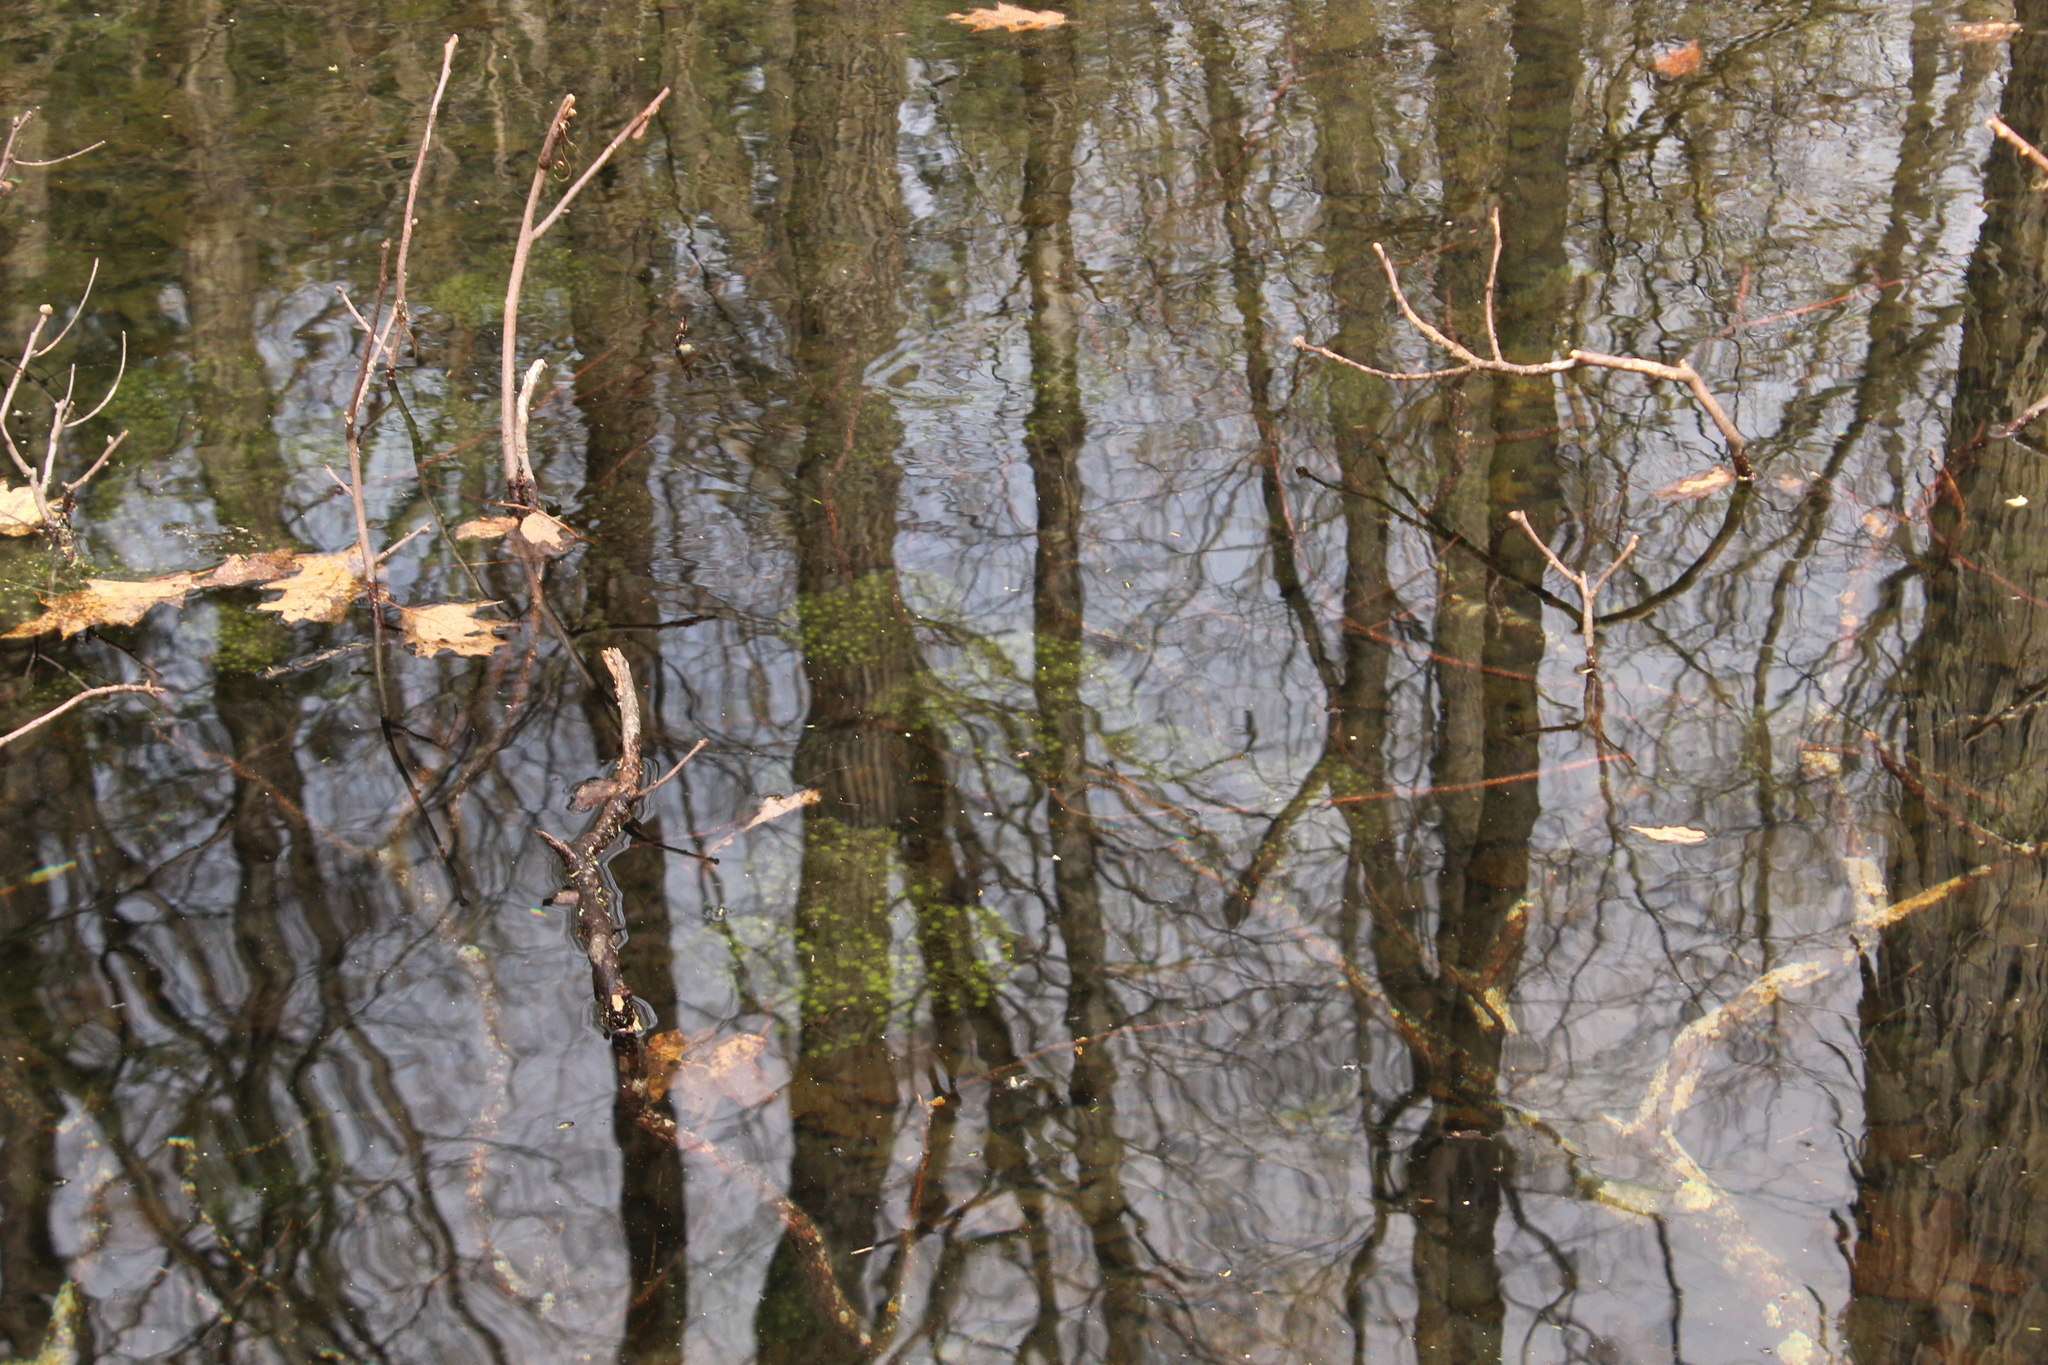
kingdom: Animalia
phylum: Chordata
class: Amphibia
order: Anura
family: Ranidae
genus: Lithobates
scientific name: Lithobates sylvaticus
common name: Wood frog
